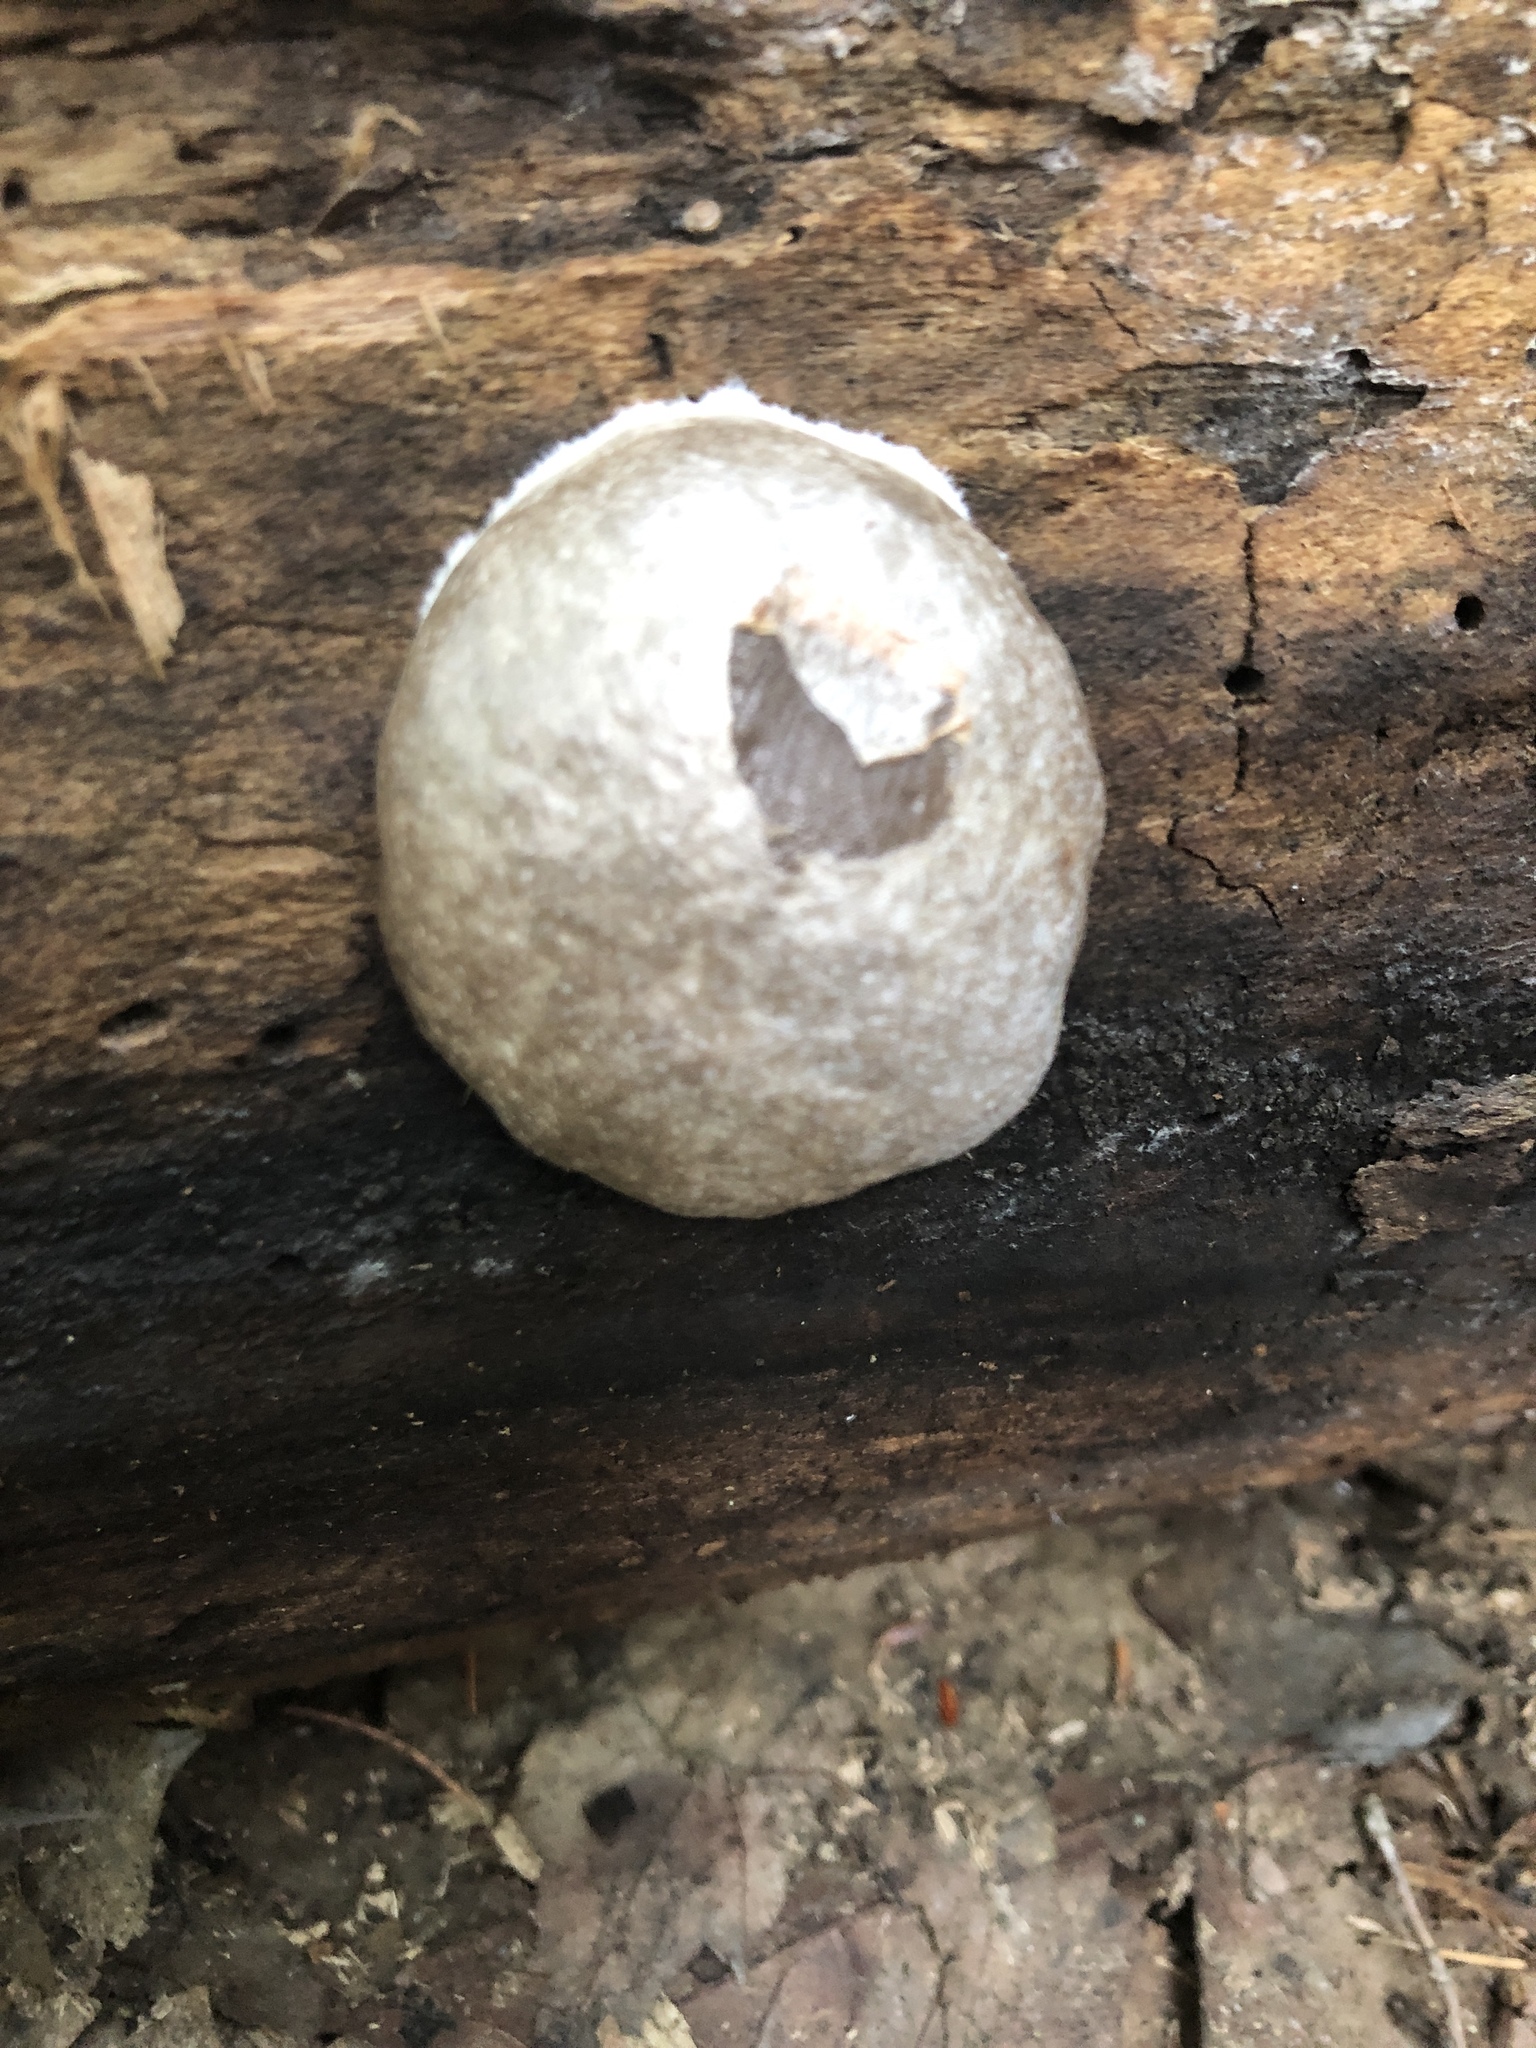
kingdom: Protozoa
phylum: Mycetozoa
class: Myxomycetes
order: Cribrariales
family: Tubiferaceae
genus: Reticularia
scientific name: Reticularia lycoperdon
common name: False puffball
